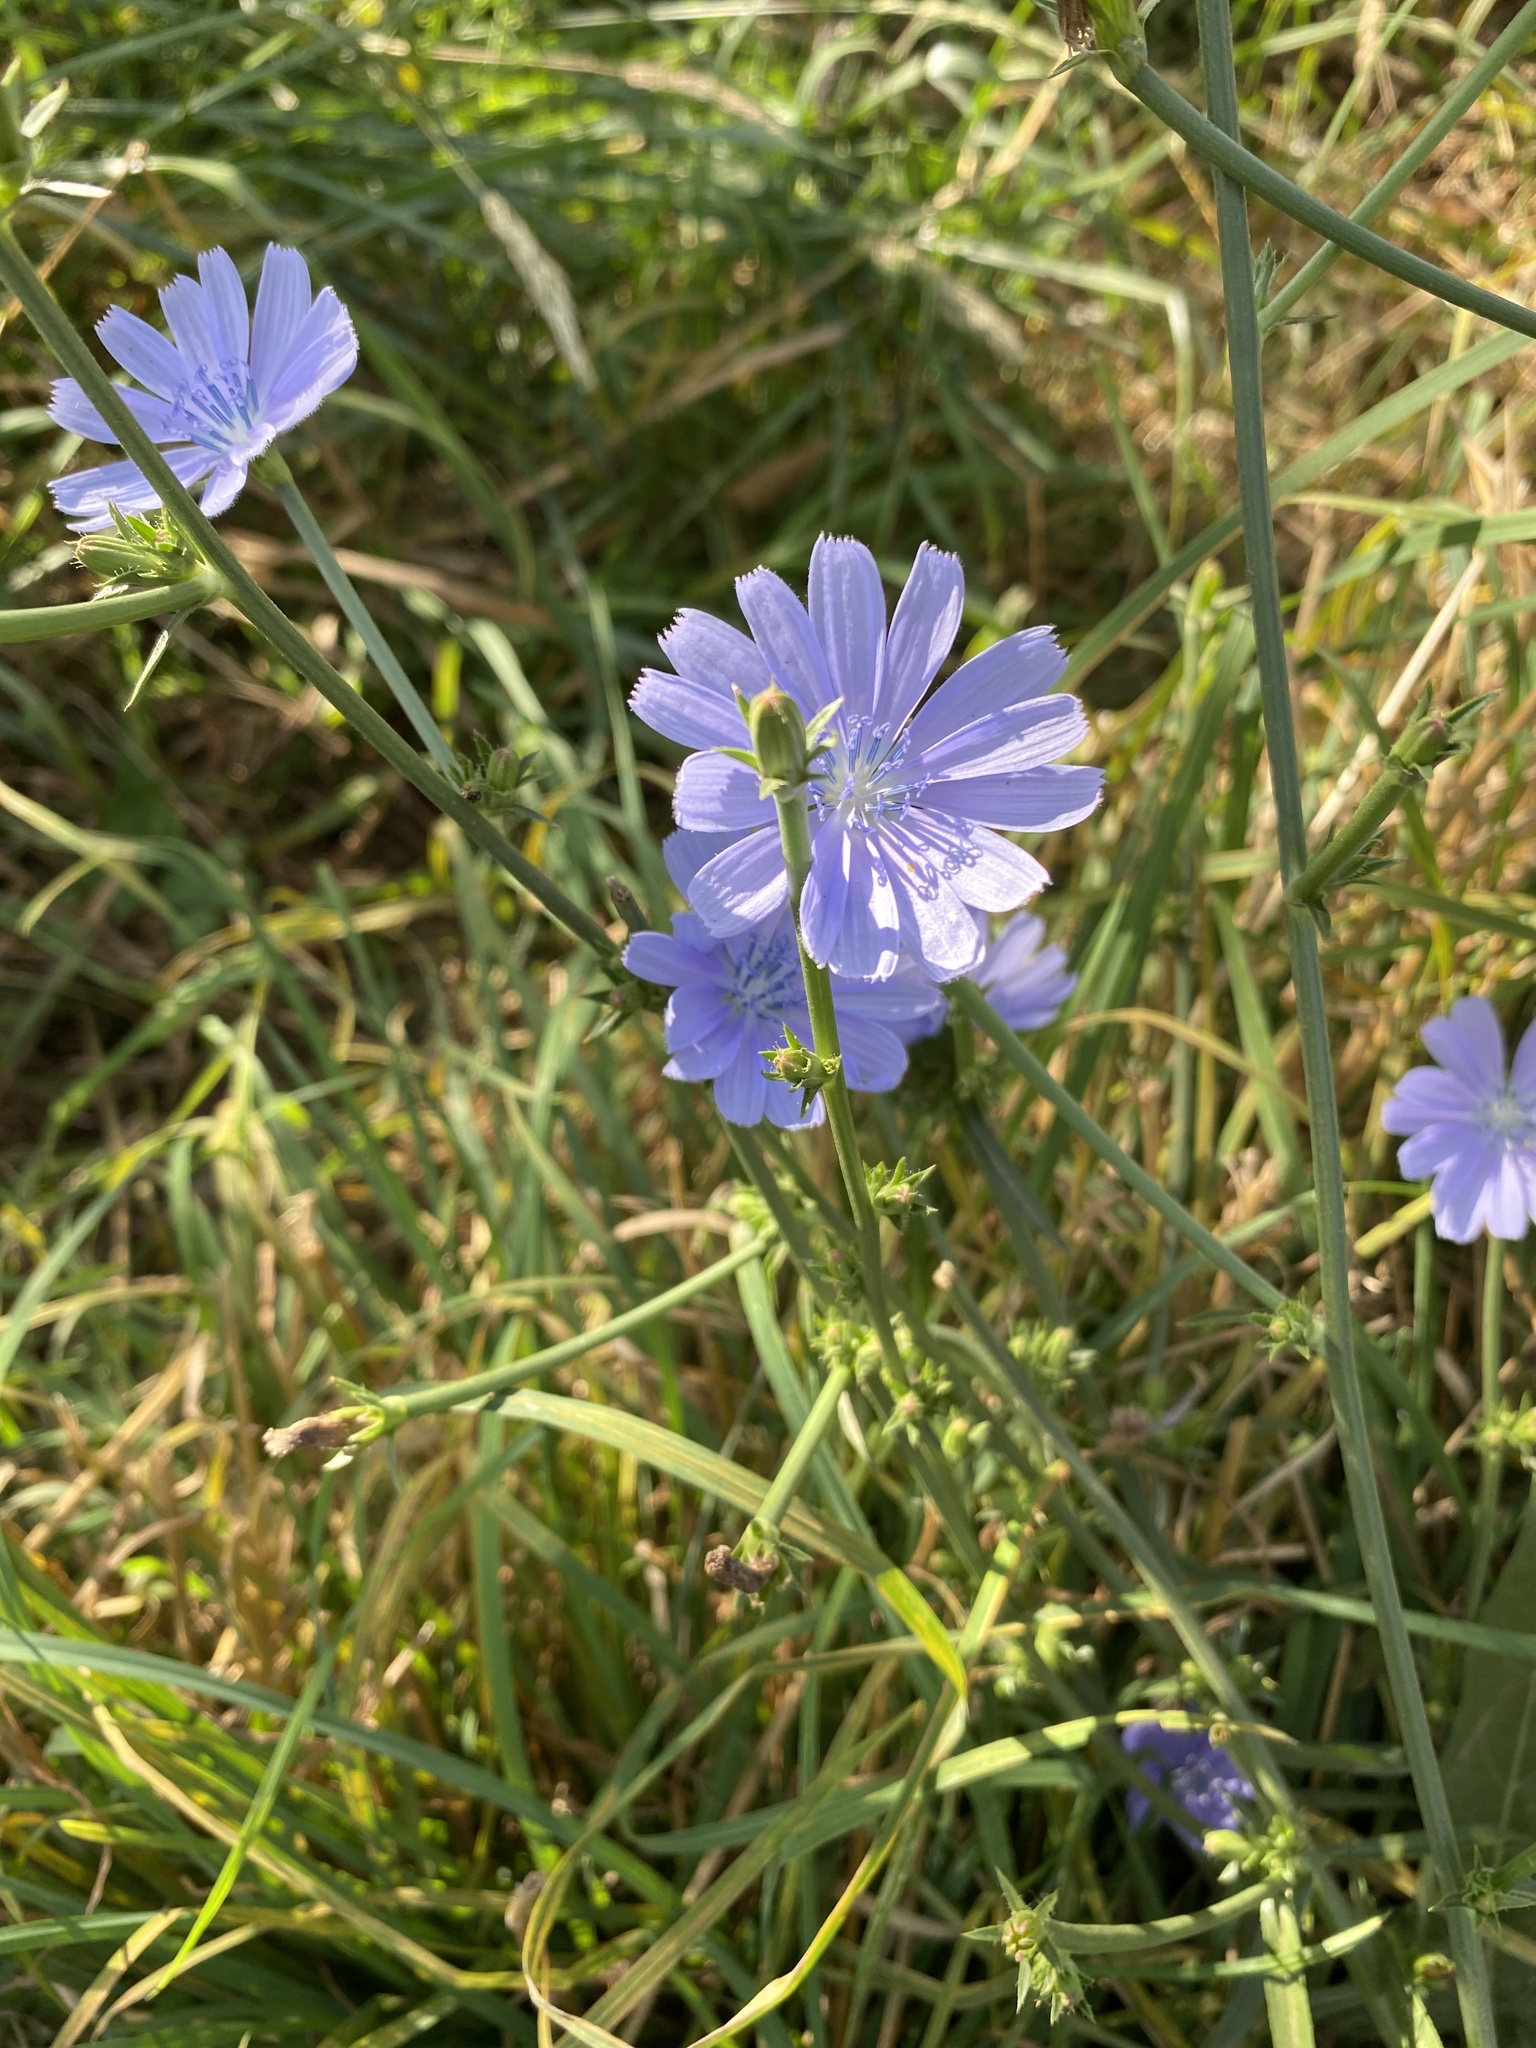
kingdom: Plantae
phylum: Tracheophyta
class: Magnoliopsida
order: Asterales
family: Asteraceae
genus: Cichorium
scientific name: Cichorium intybus
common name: Chicory
